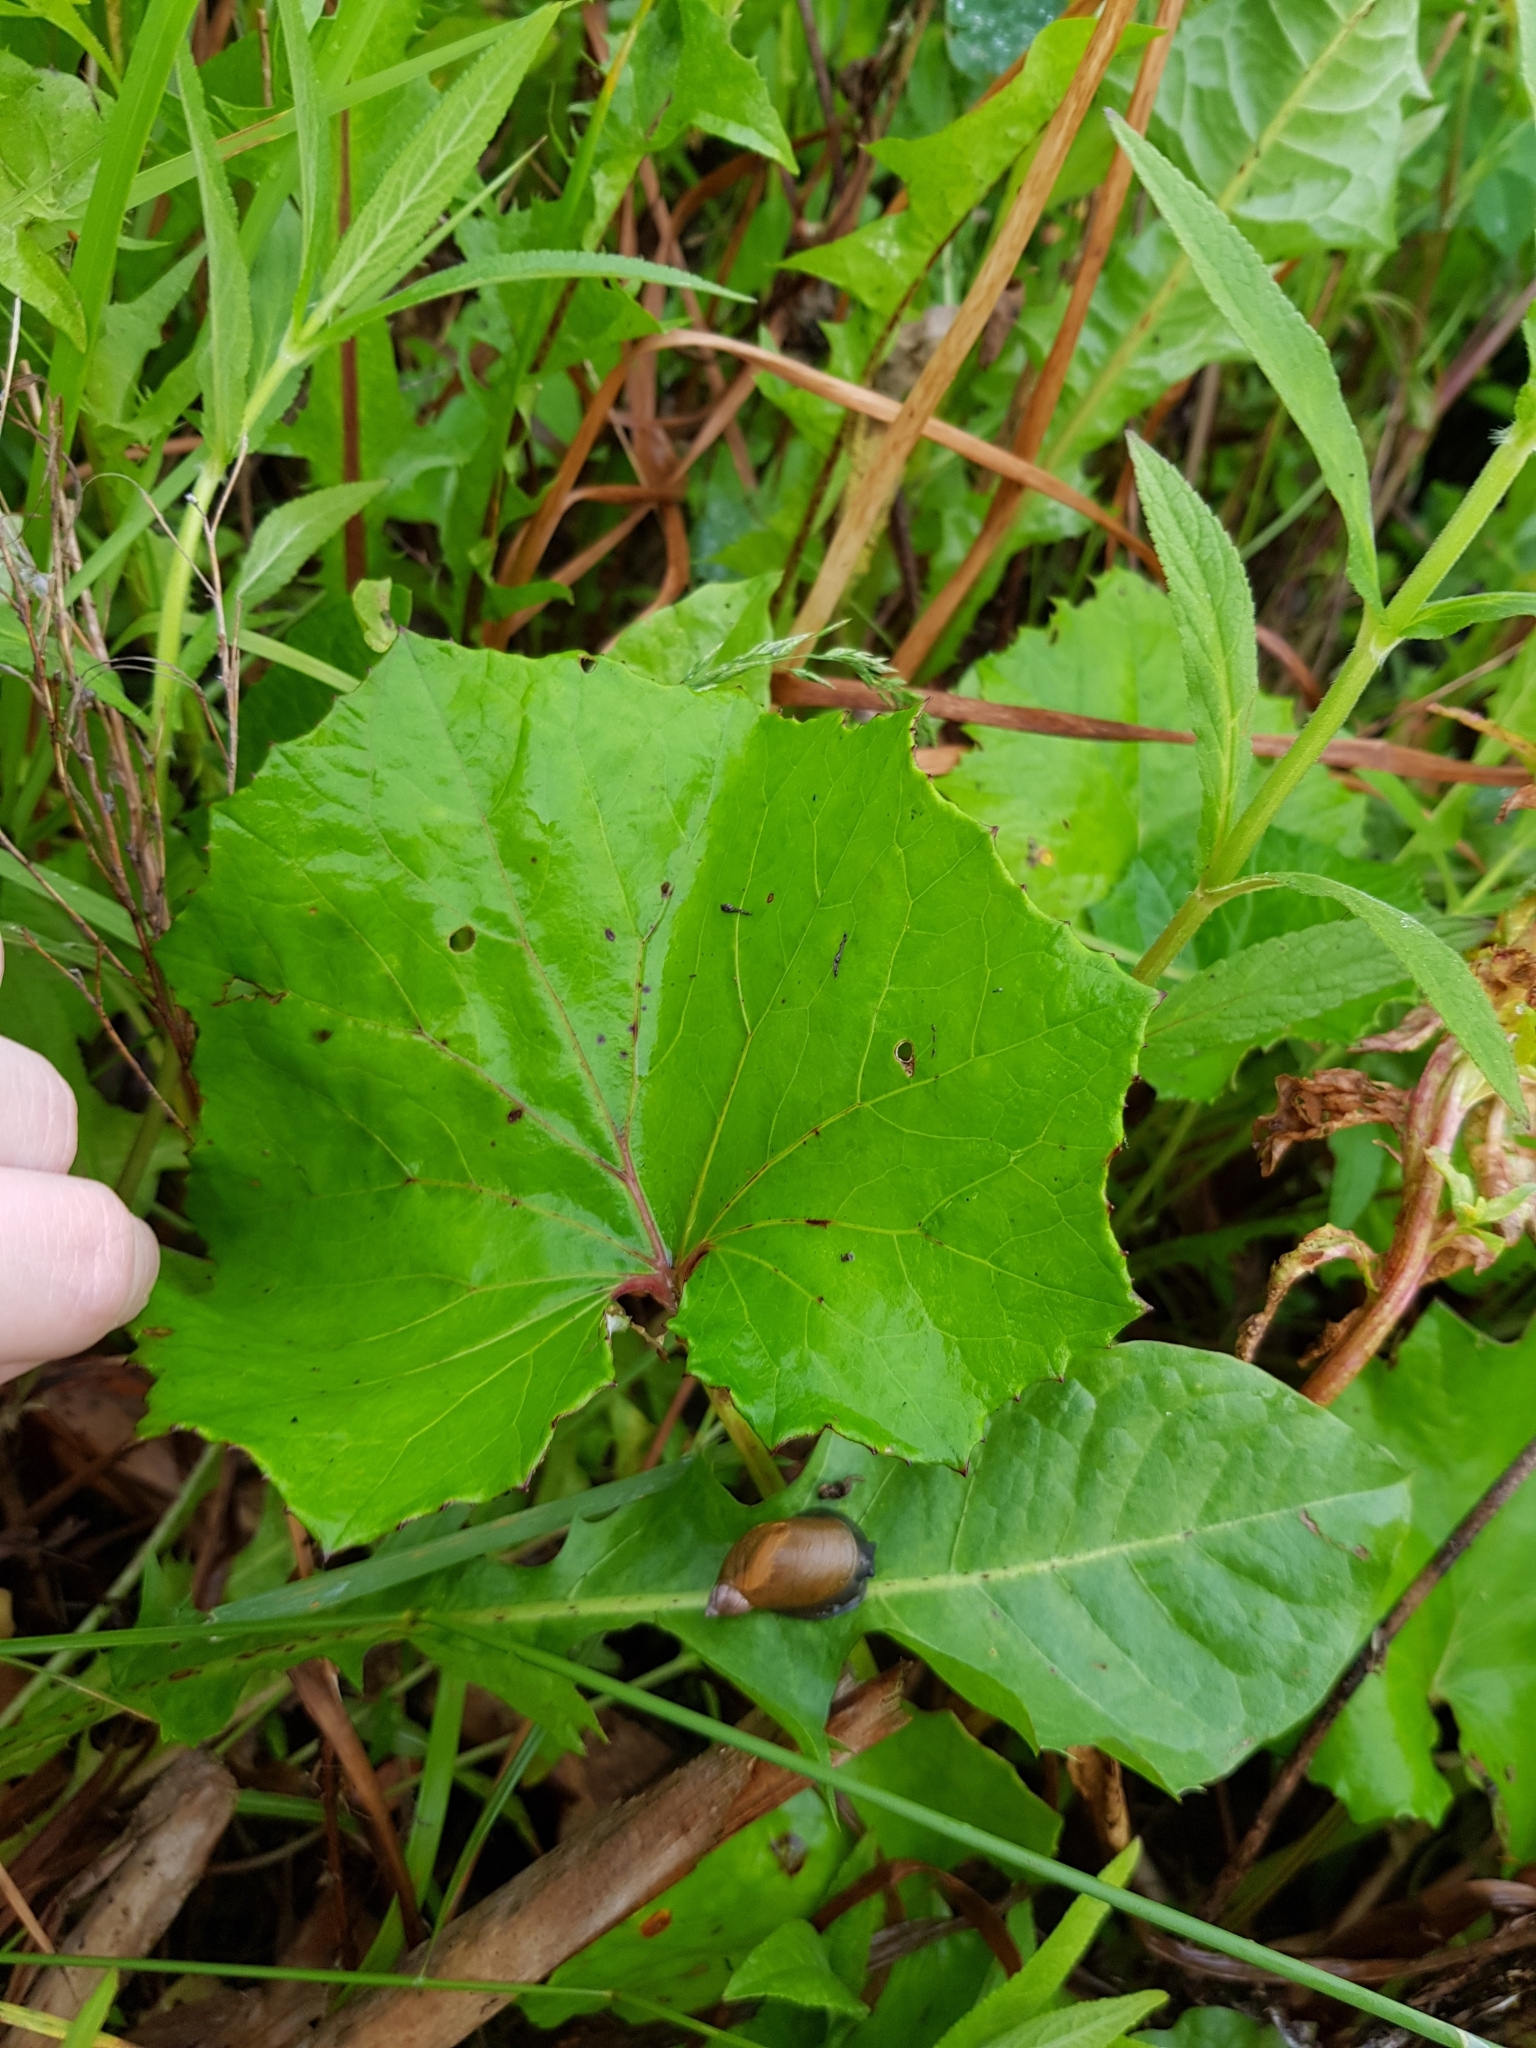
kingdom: Plantae
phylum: Tracheophyta
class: Magnoliopsida
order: Asterales
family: Asteraceae
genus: Tussilago
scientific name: Tussilago farfara
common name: Coltsfoot
